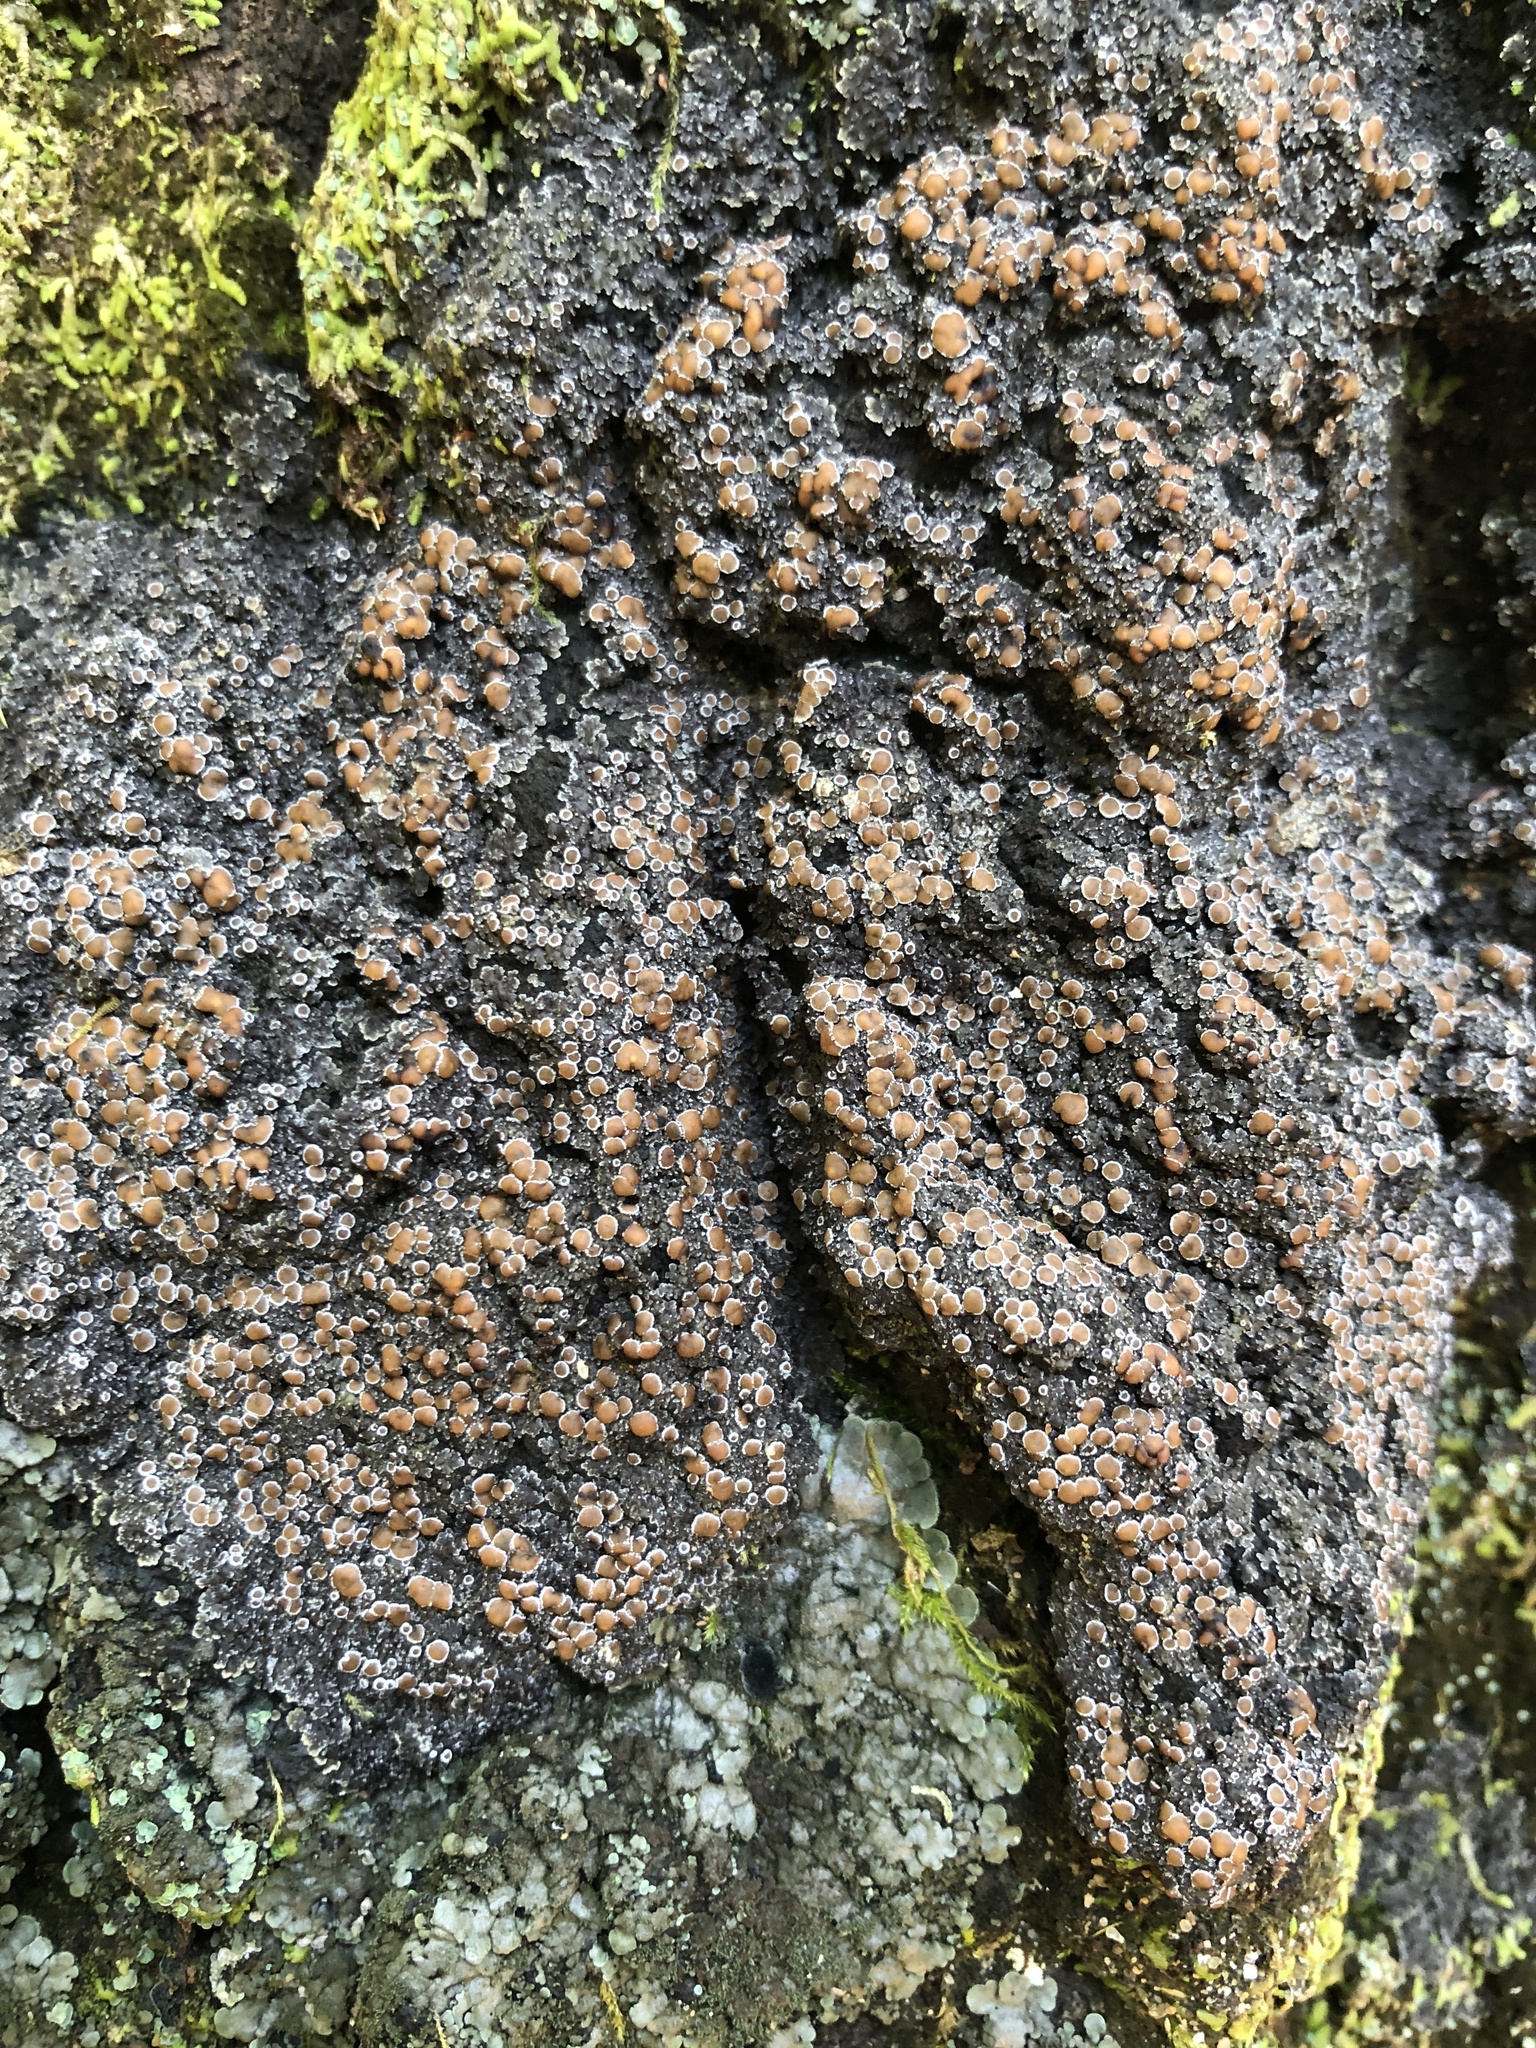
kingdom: Fungi
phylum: Ascomycota
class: Lecanoromycetes
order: Peltigerales
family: Pannariaceae
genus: Fuscopannaria
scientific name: Fuscopannaria leucosticta
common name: Rimmed shingle lichen
